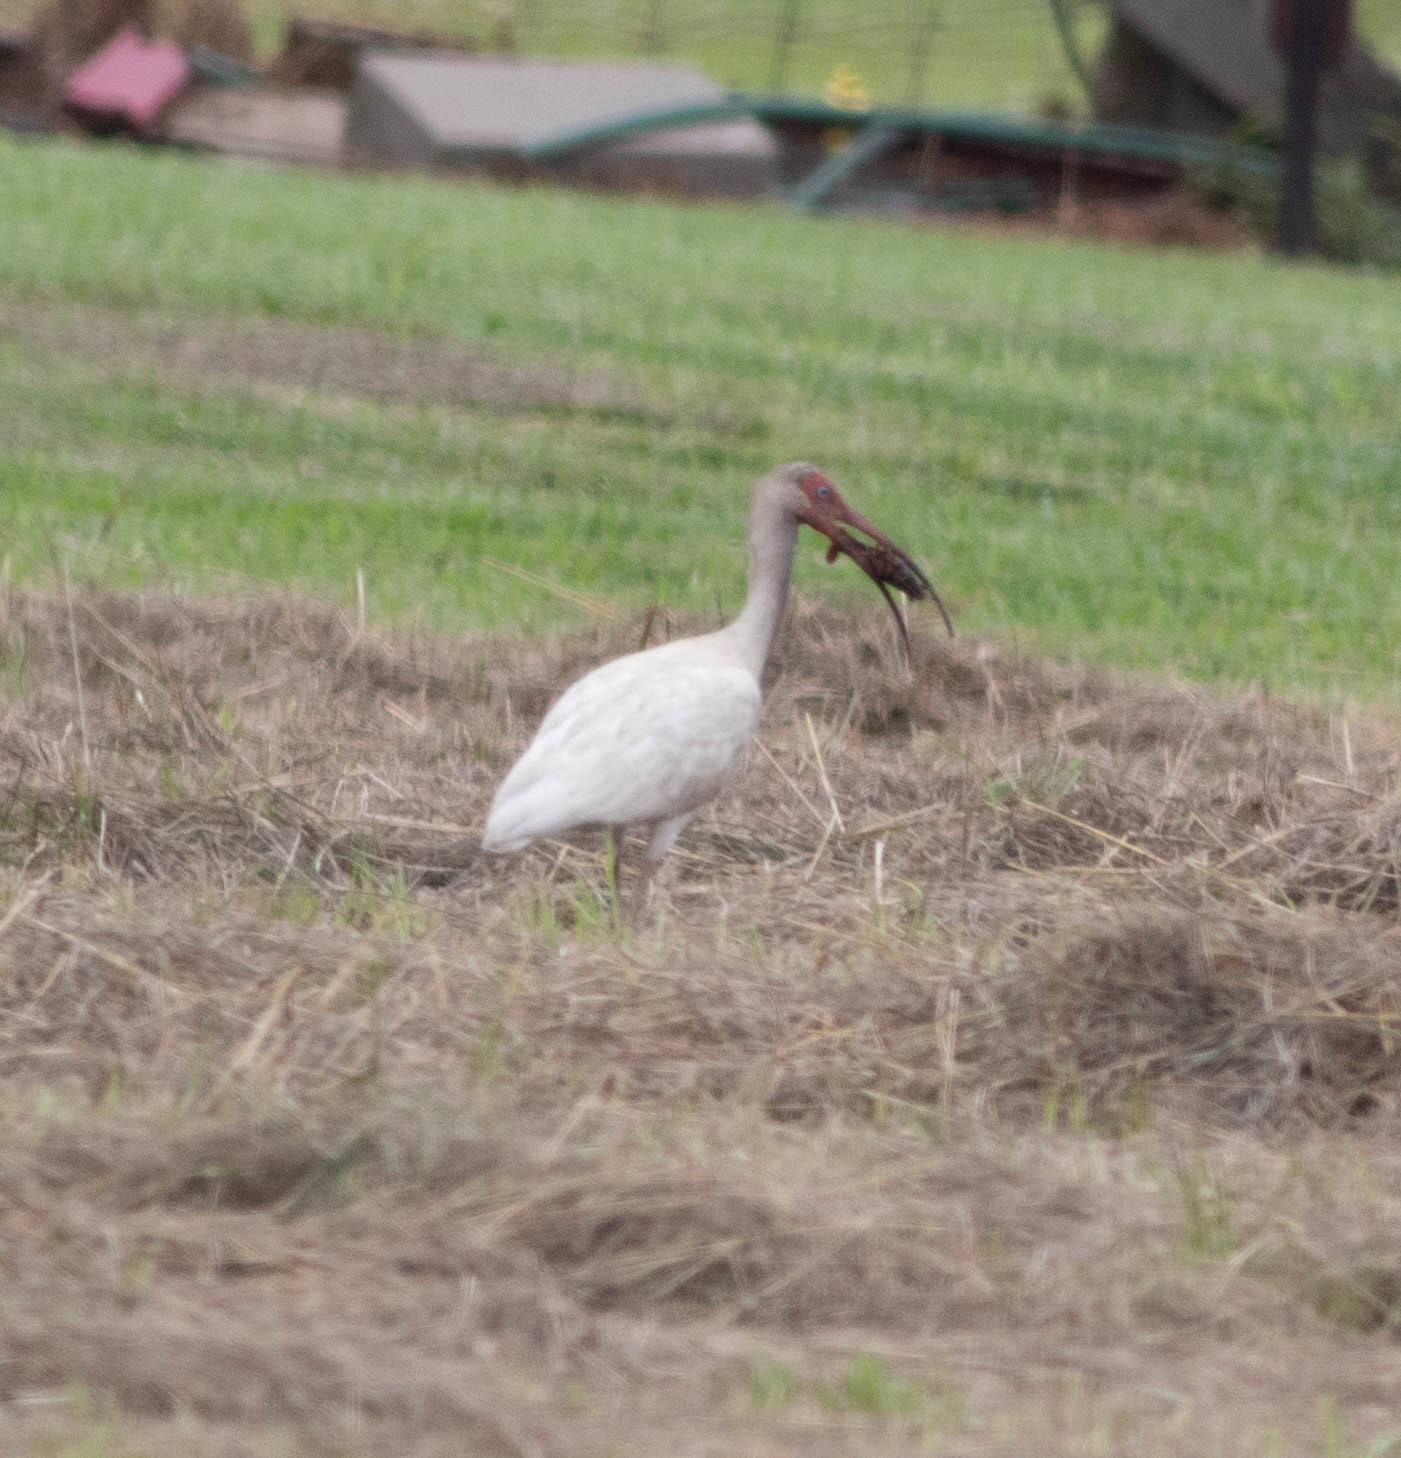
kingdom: Animalia
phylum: Chordata
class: Aves
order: Pelecaniformes
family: Threskiornithidae
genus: Eudocimus
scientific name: Eudocimus albus
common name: White ibis
